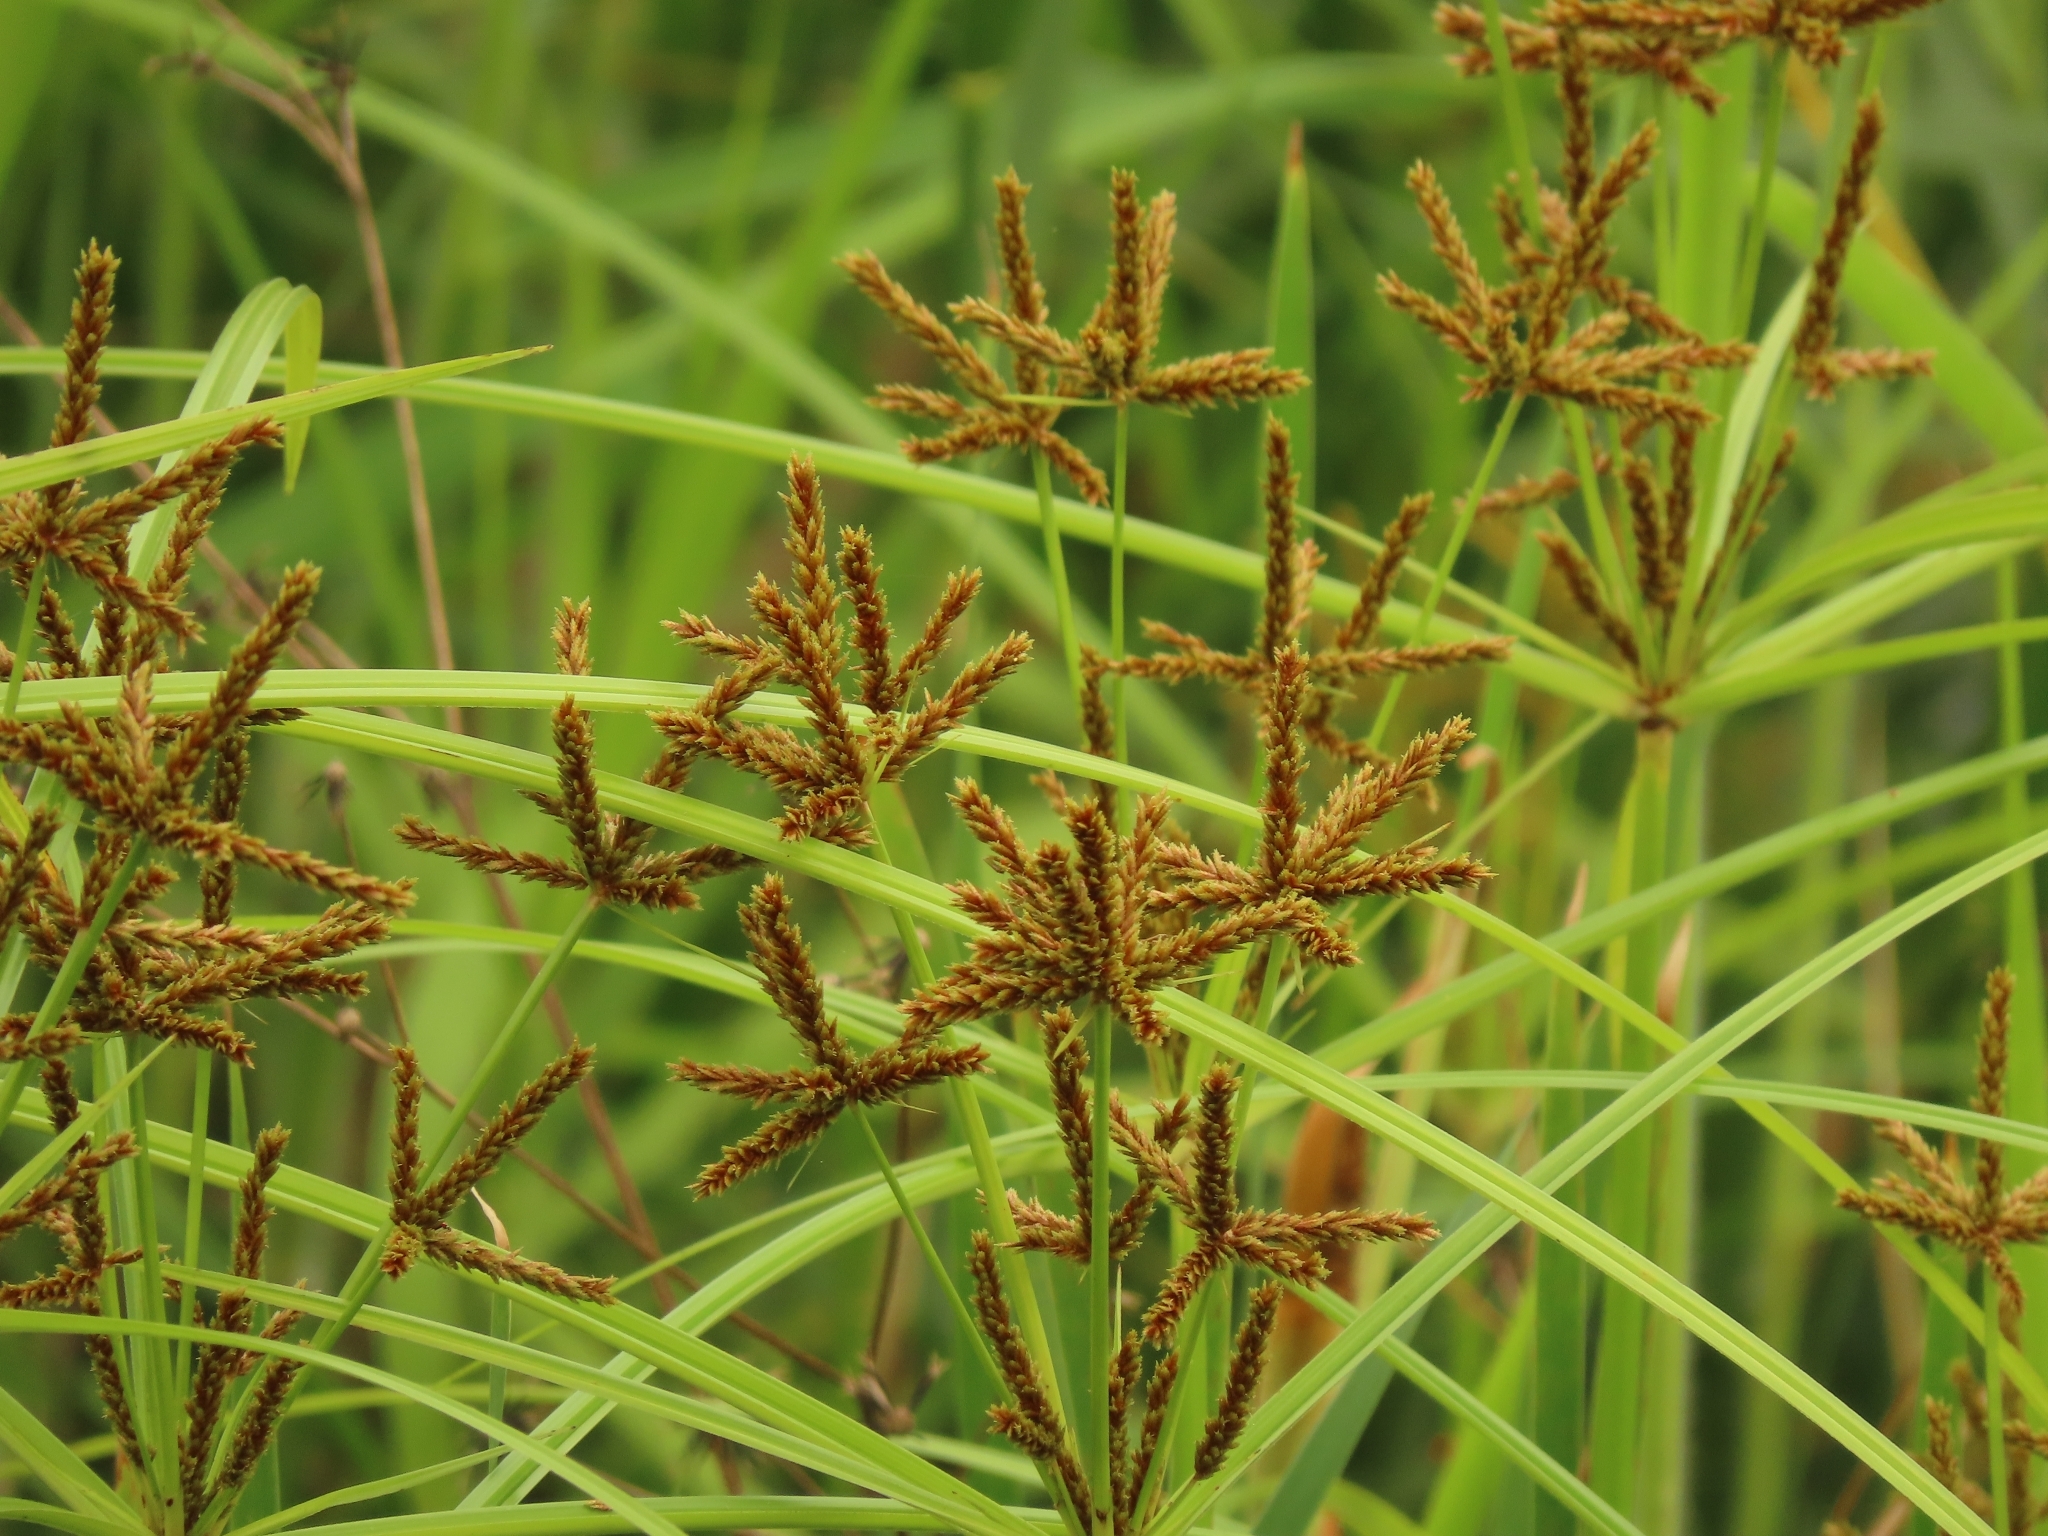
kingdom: Plantae
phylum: Tracheophyta
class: Liliopsida
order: Poales
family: Cyperaceae
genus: Cyperus
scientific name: Cyperus imbricatus
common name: Shingle flatsedge
